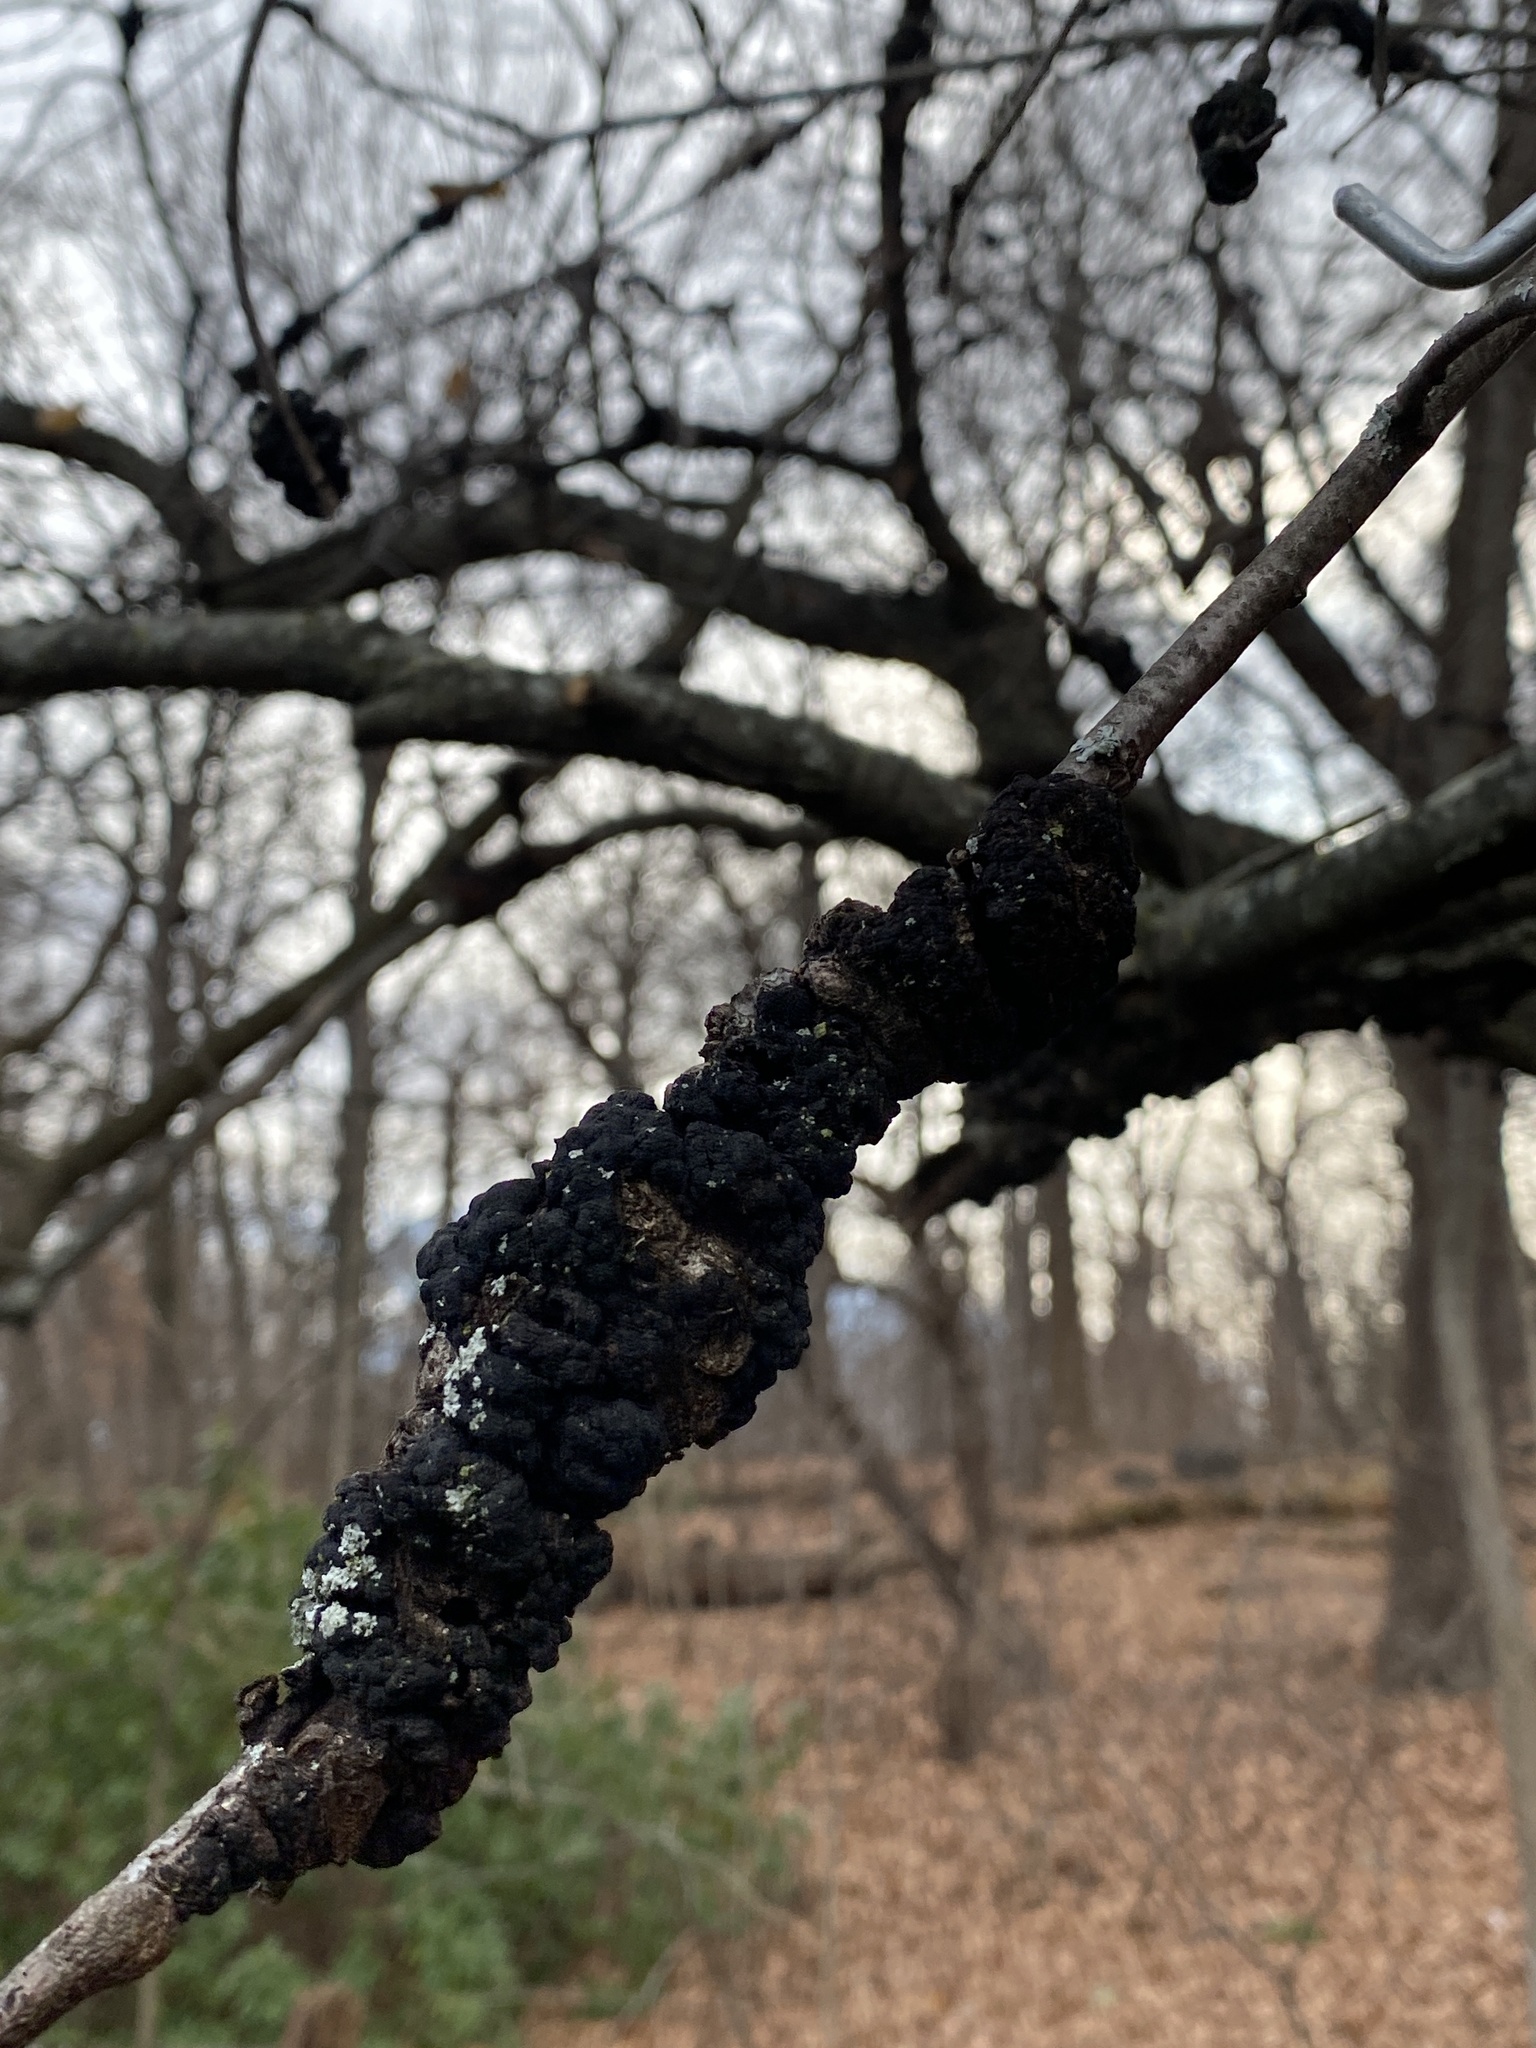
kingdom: Fungi
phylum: Ascomycota
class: Dothideomycetes
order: Venturiales
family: Venturiaceae
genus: Apiosporina
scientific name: Apiosporina morbosa
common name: Black knot
